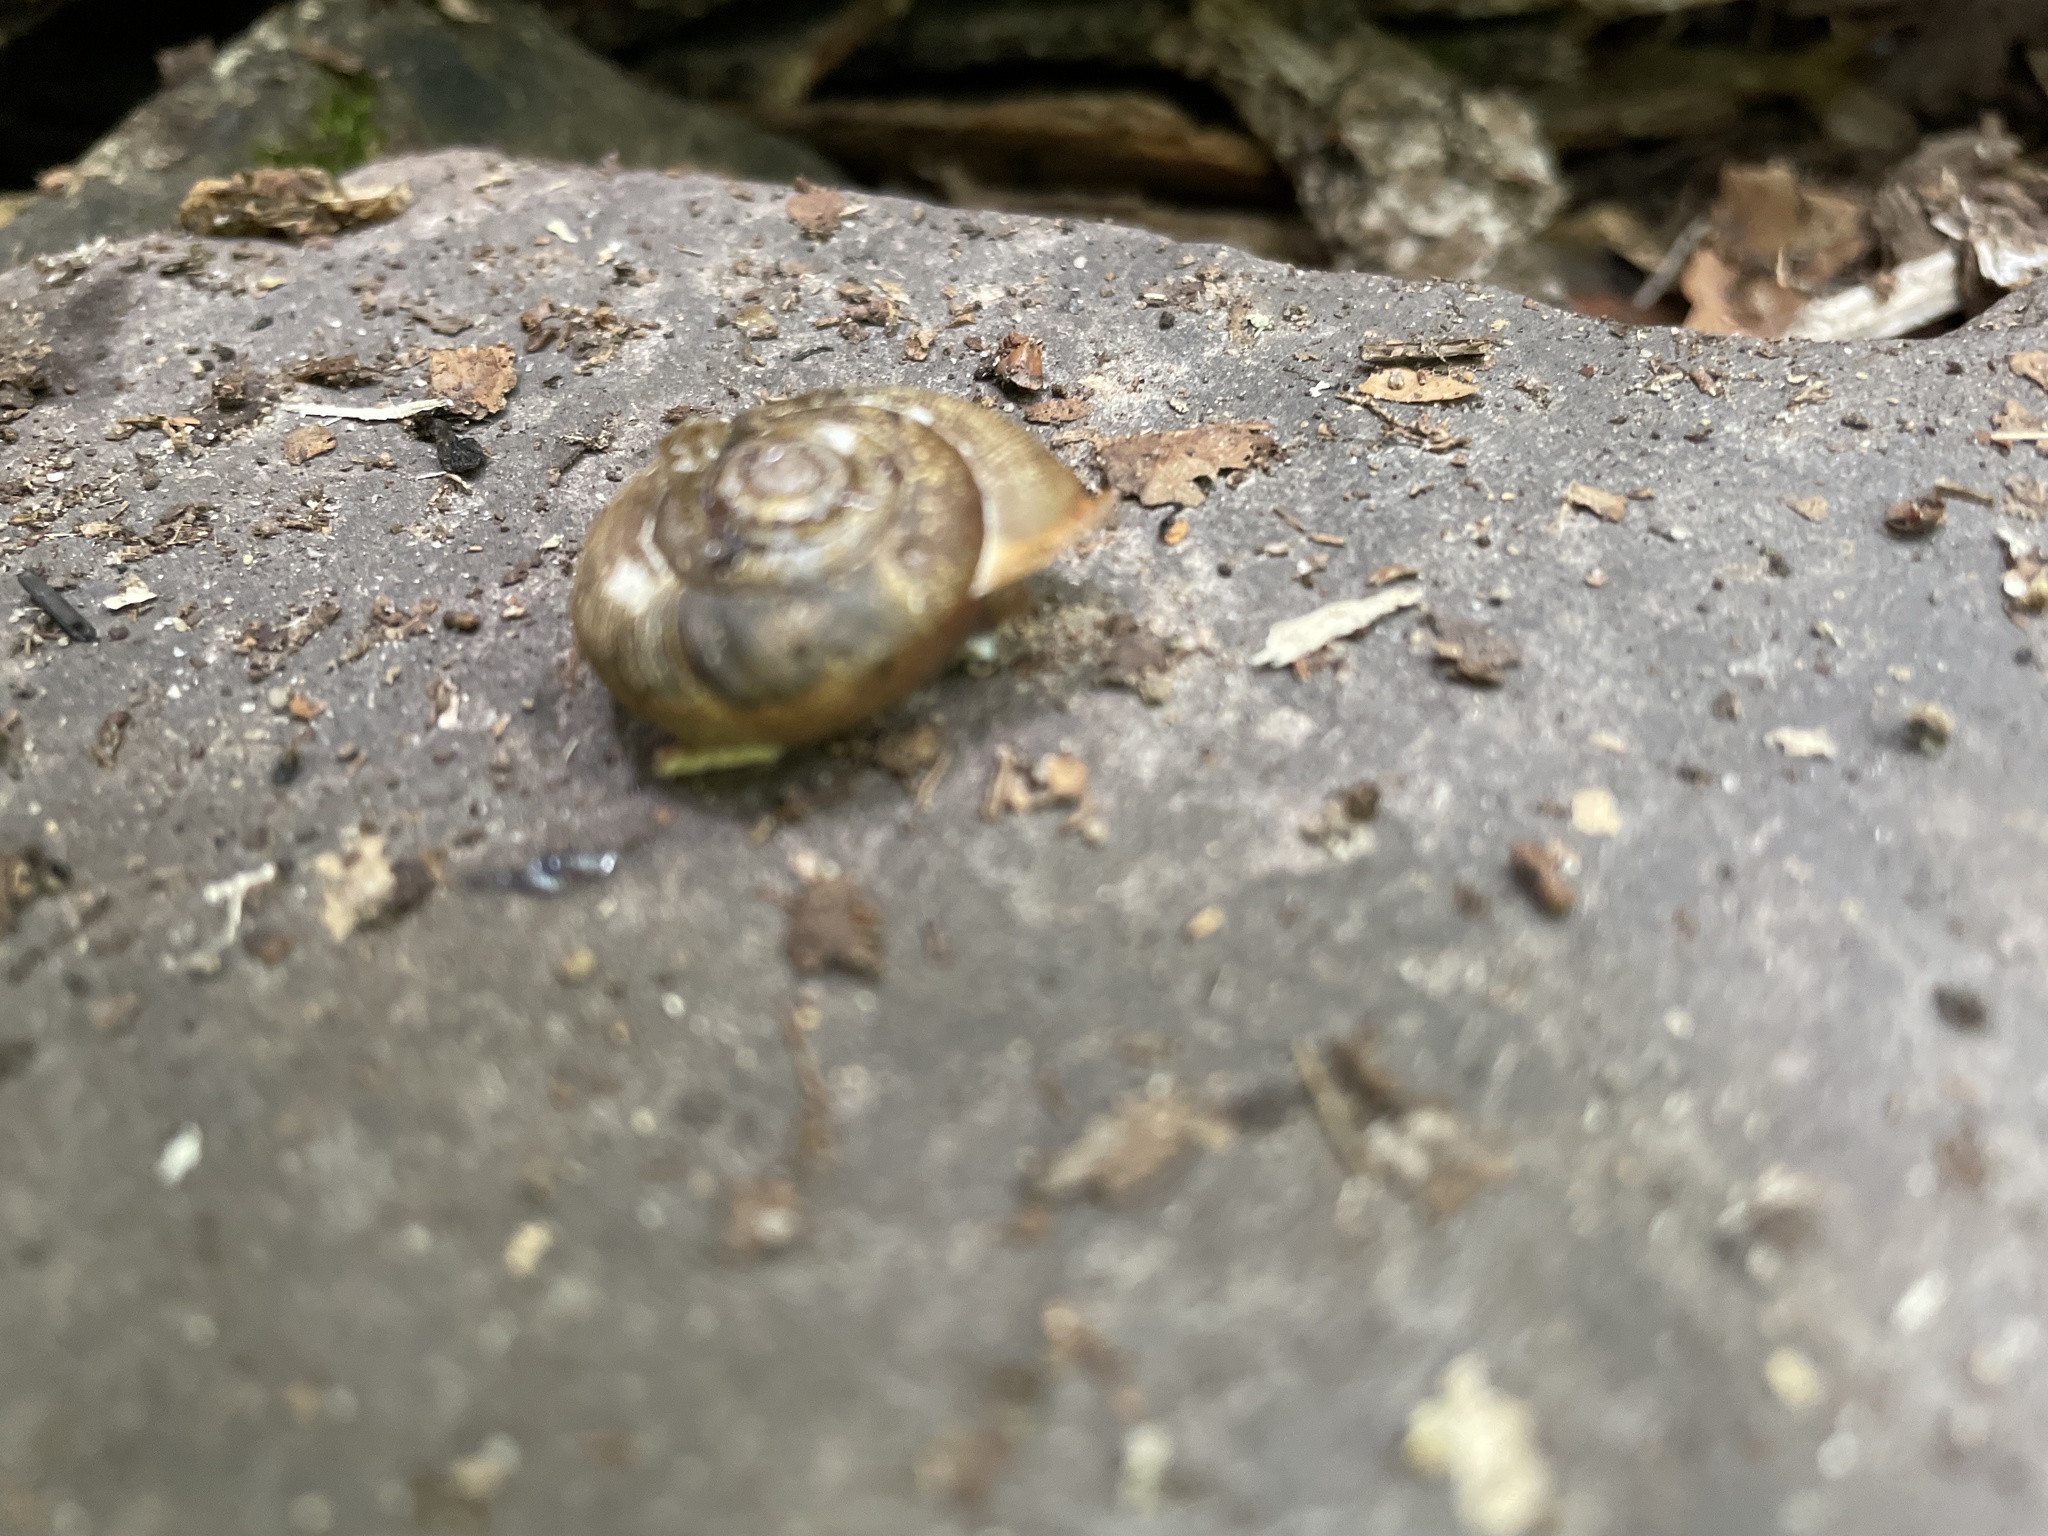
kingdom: Animalia
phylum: Mollusca
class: Gastropoda
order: Stylommatophora
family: Polygyridae
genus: Neohelix
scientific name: Neohelix albolabris
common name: Eastern whitelip
